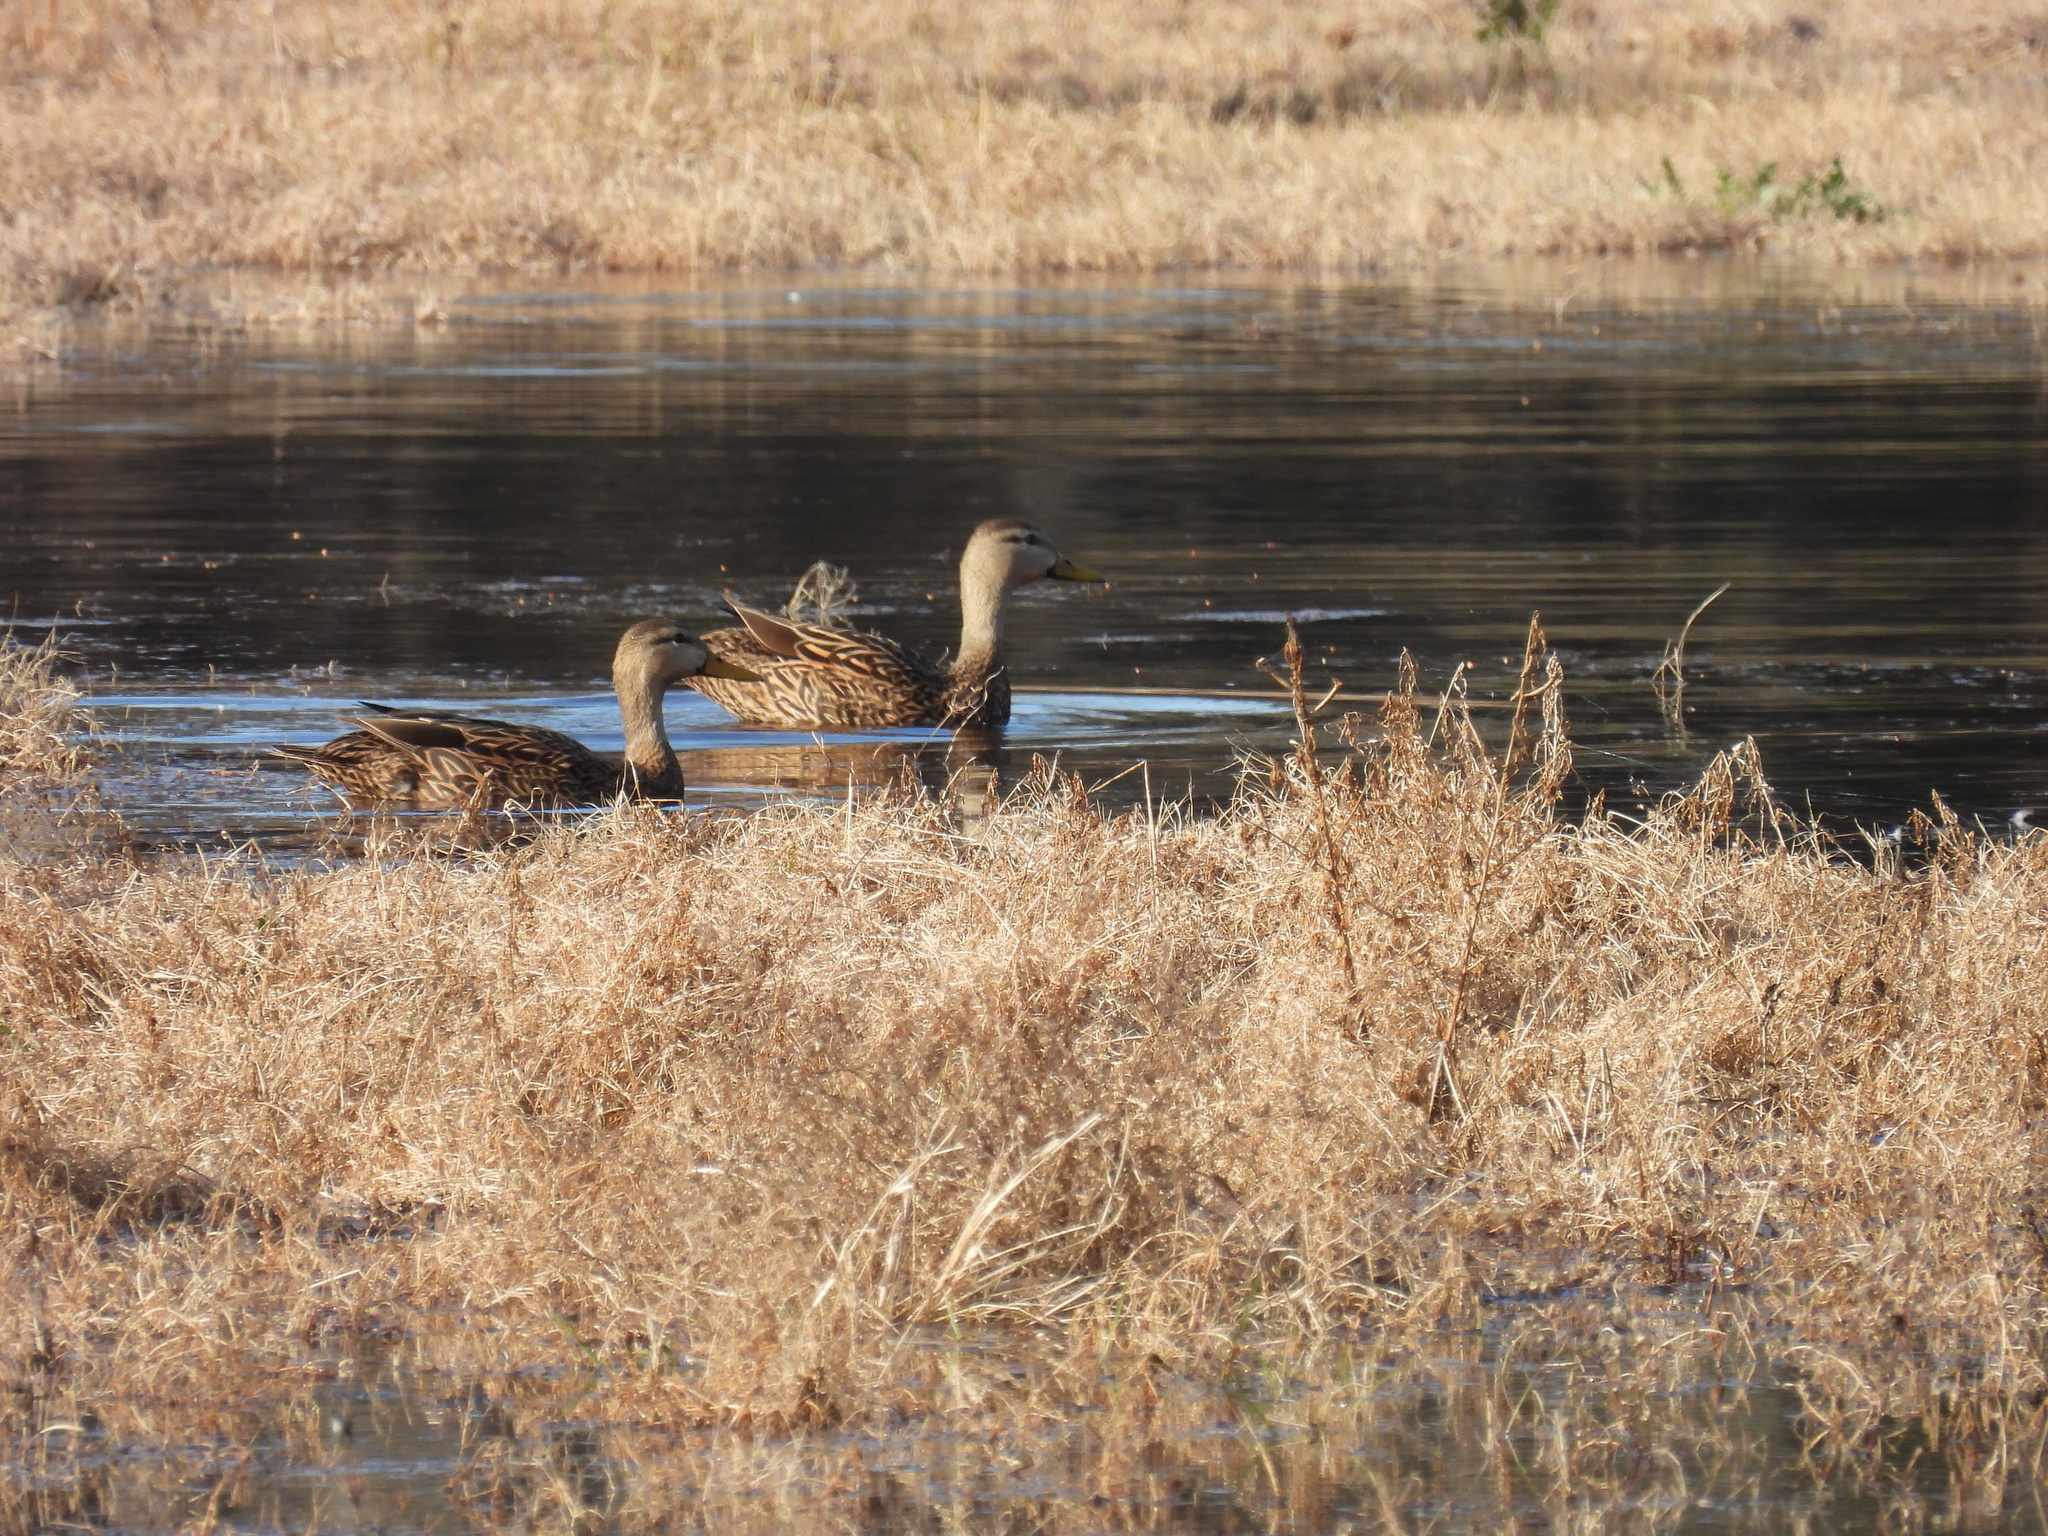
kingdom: Animalia
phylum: Chordata
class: Aves
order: Anseriformes
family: Anatidae
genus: Anas
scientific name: Anas fulvigula
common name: Mottled duck
